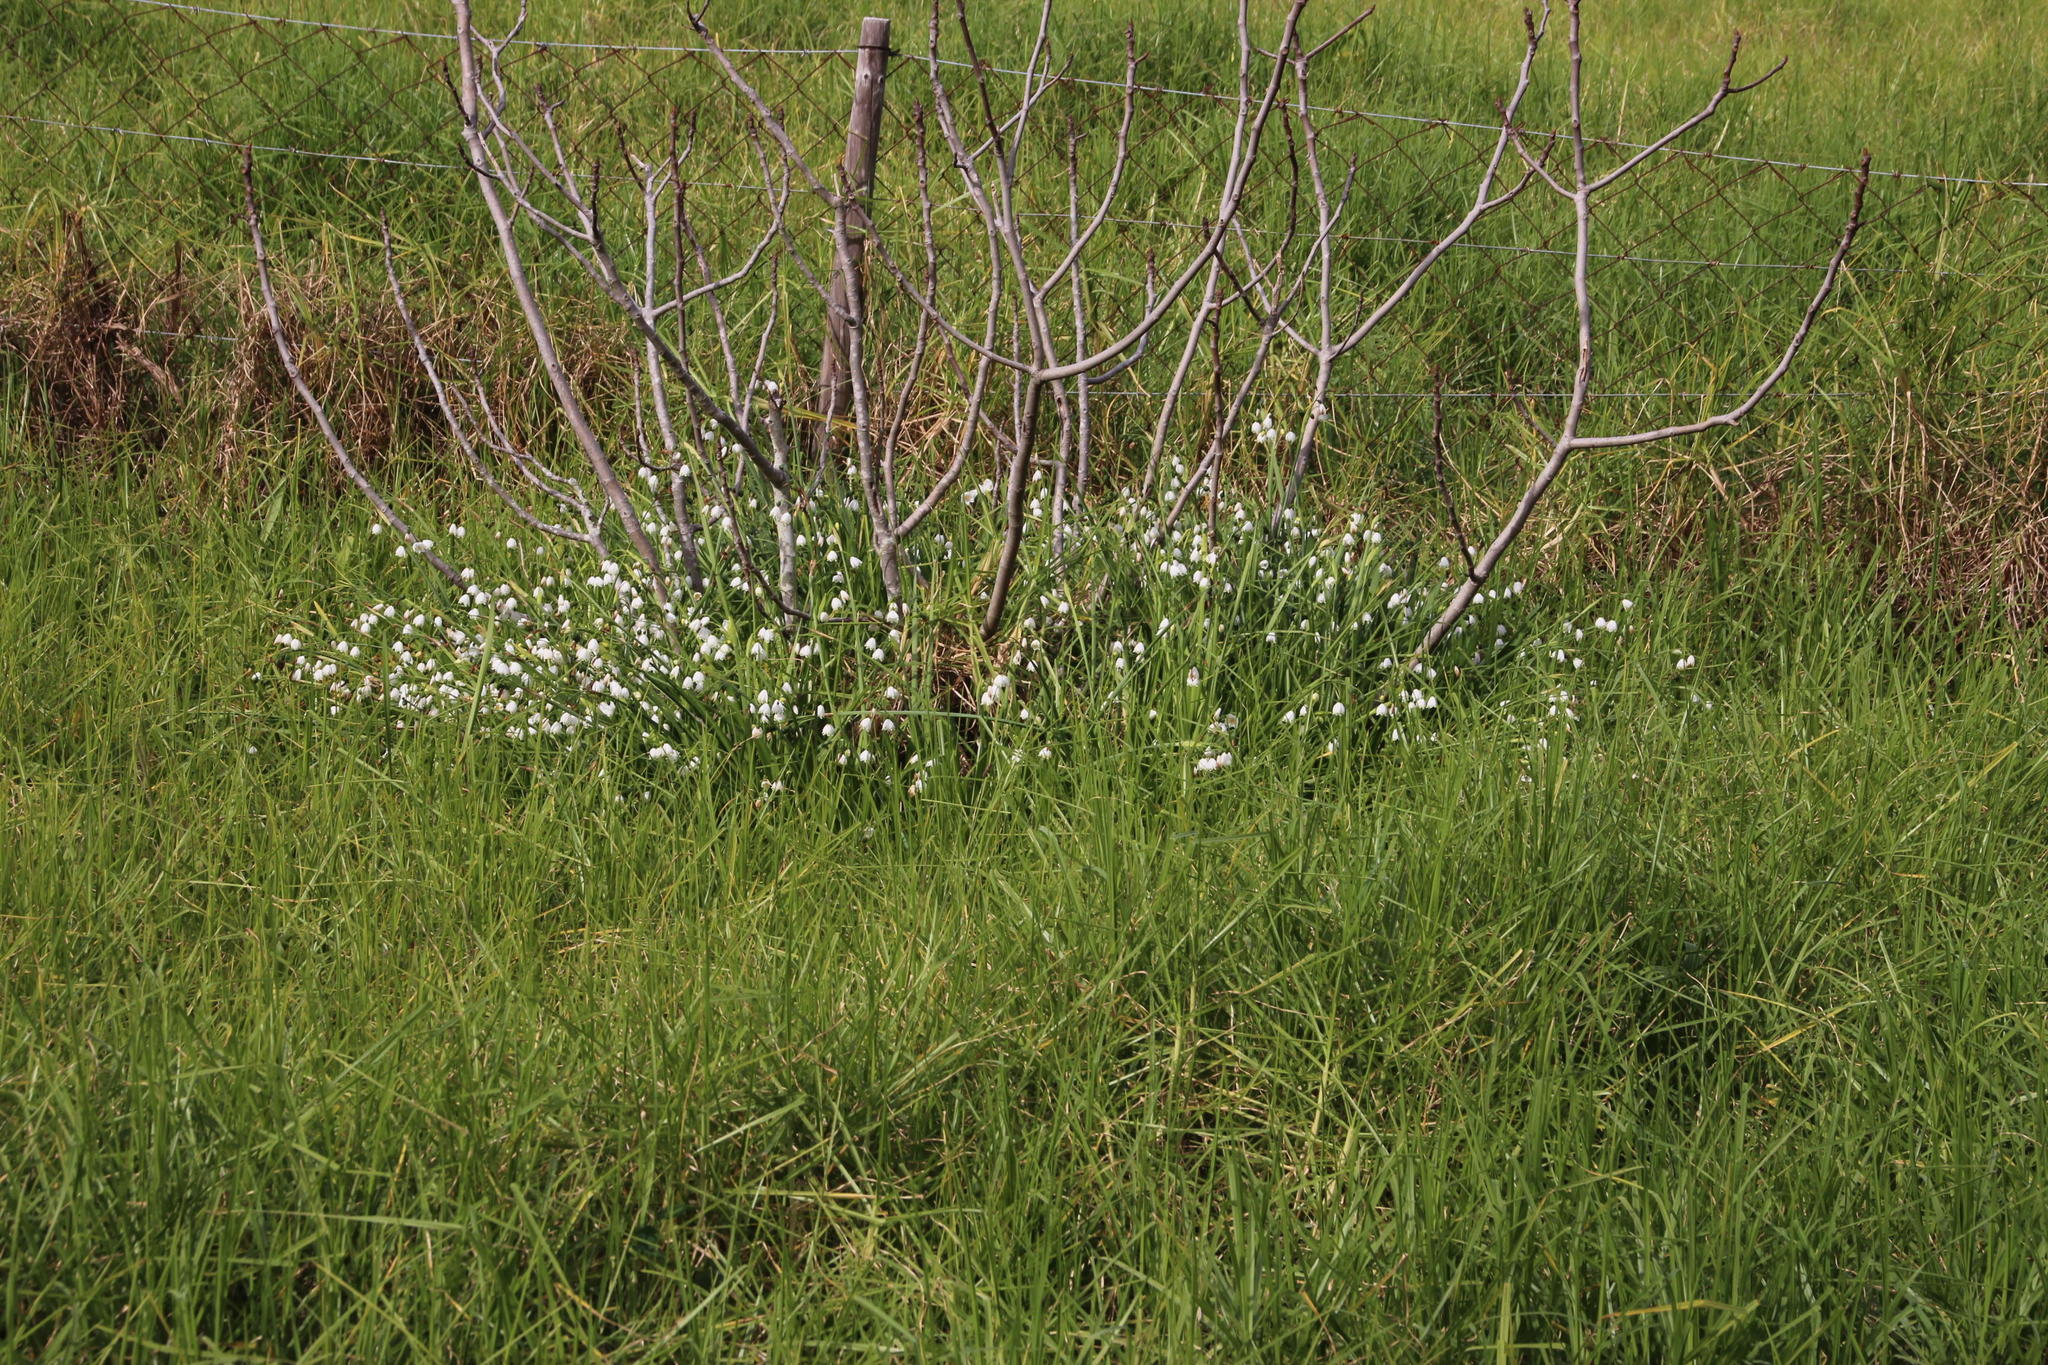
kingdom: Plantae
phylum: Tracheophyta
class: Liliopsida
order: Poales
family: Poaceae
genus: Cenchrus
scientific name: Cenchrus clandestinus
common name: Kikuyugrass
